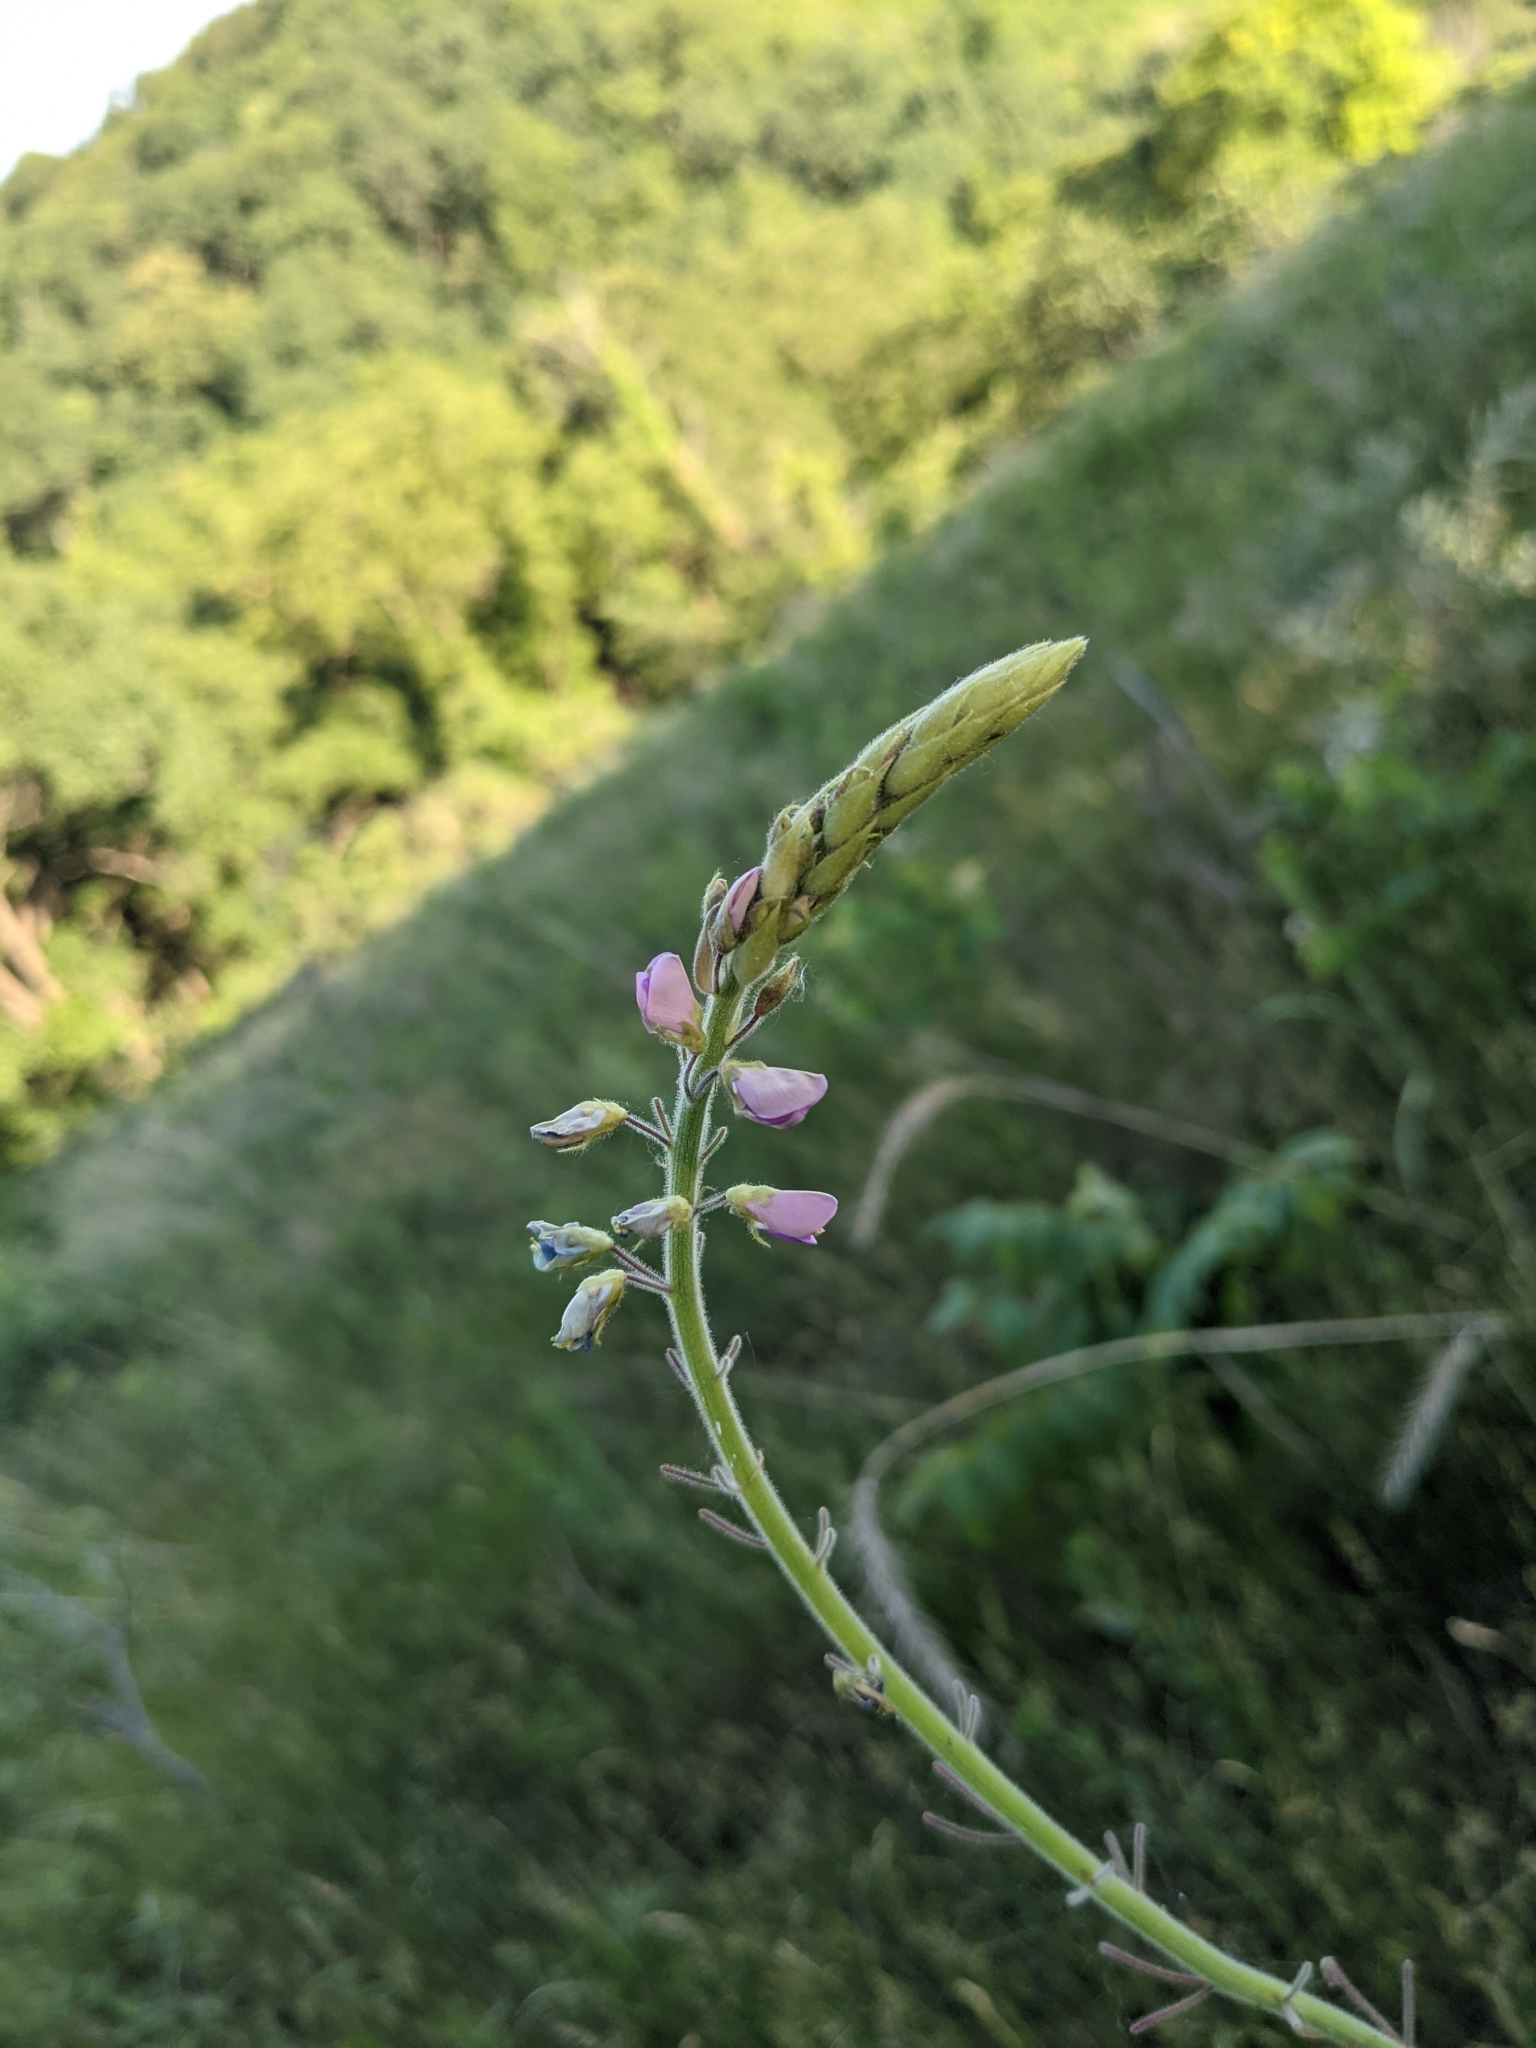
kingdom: Plantae
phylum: Tracheophyta
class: Magnoliopsida
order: Fabales
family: Fabaceae
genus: Desmodium
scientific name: Desmodium illinoense
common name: Illinois tick-clover
